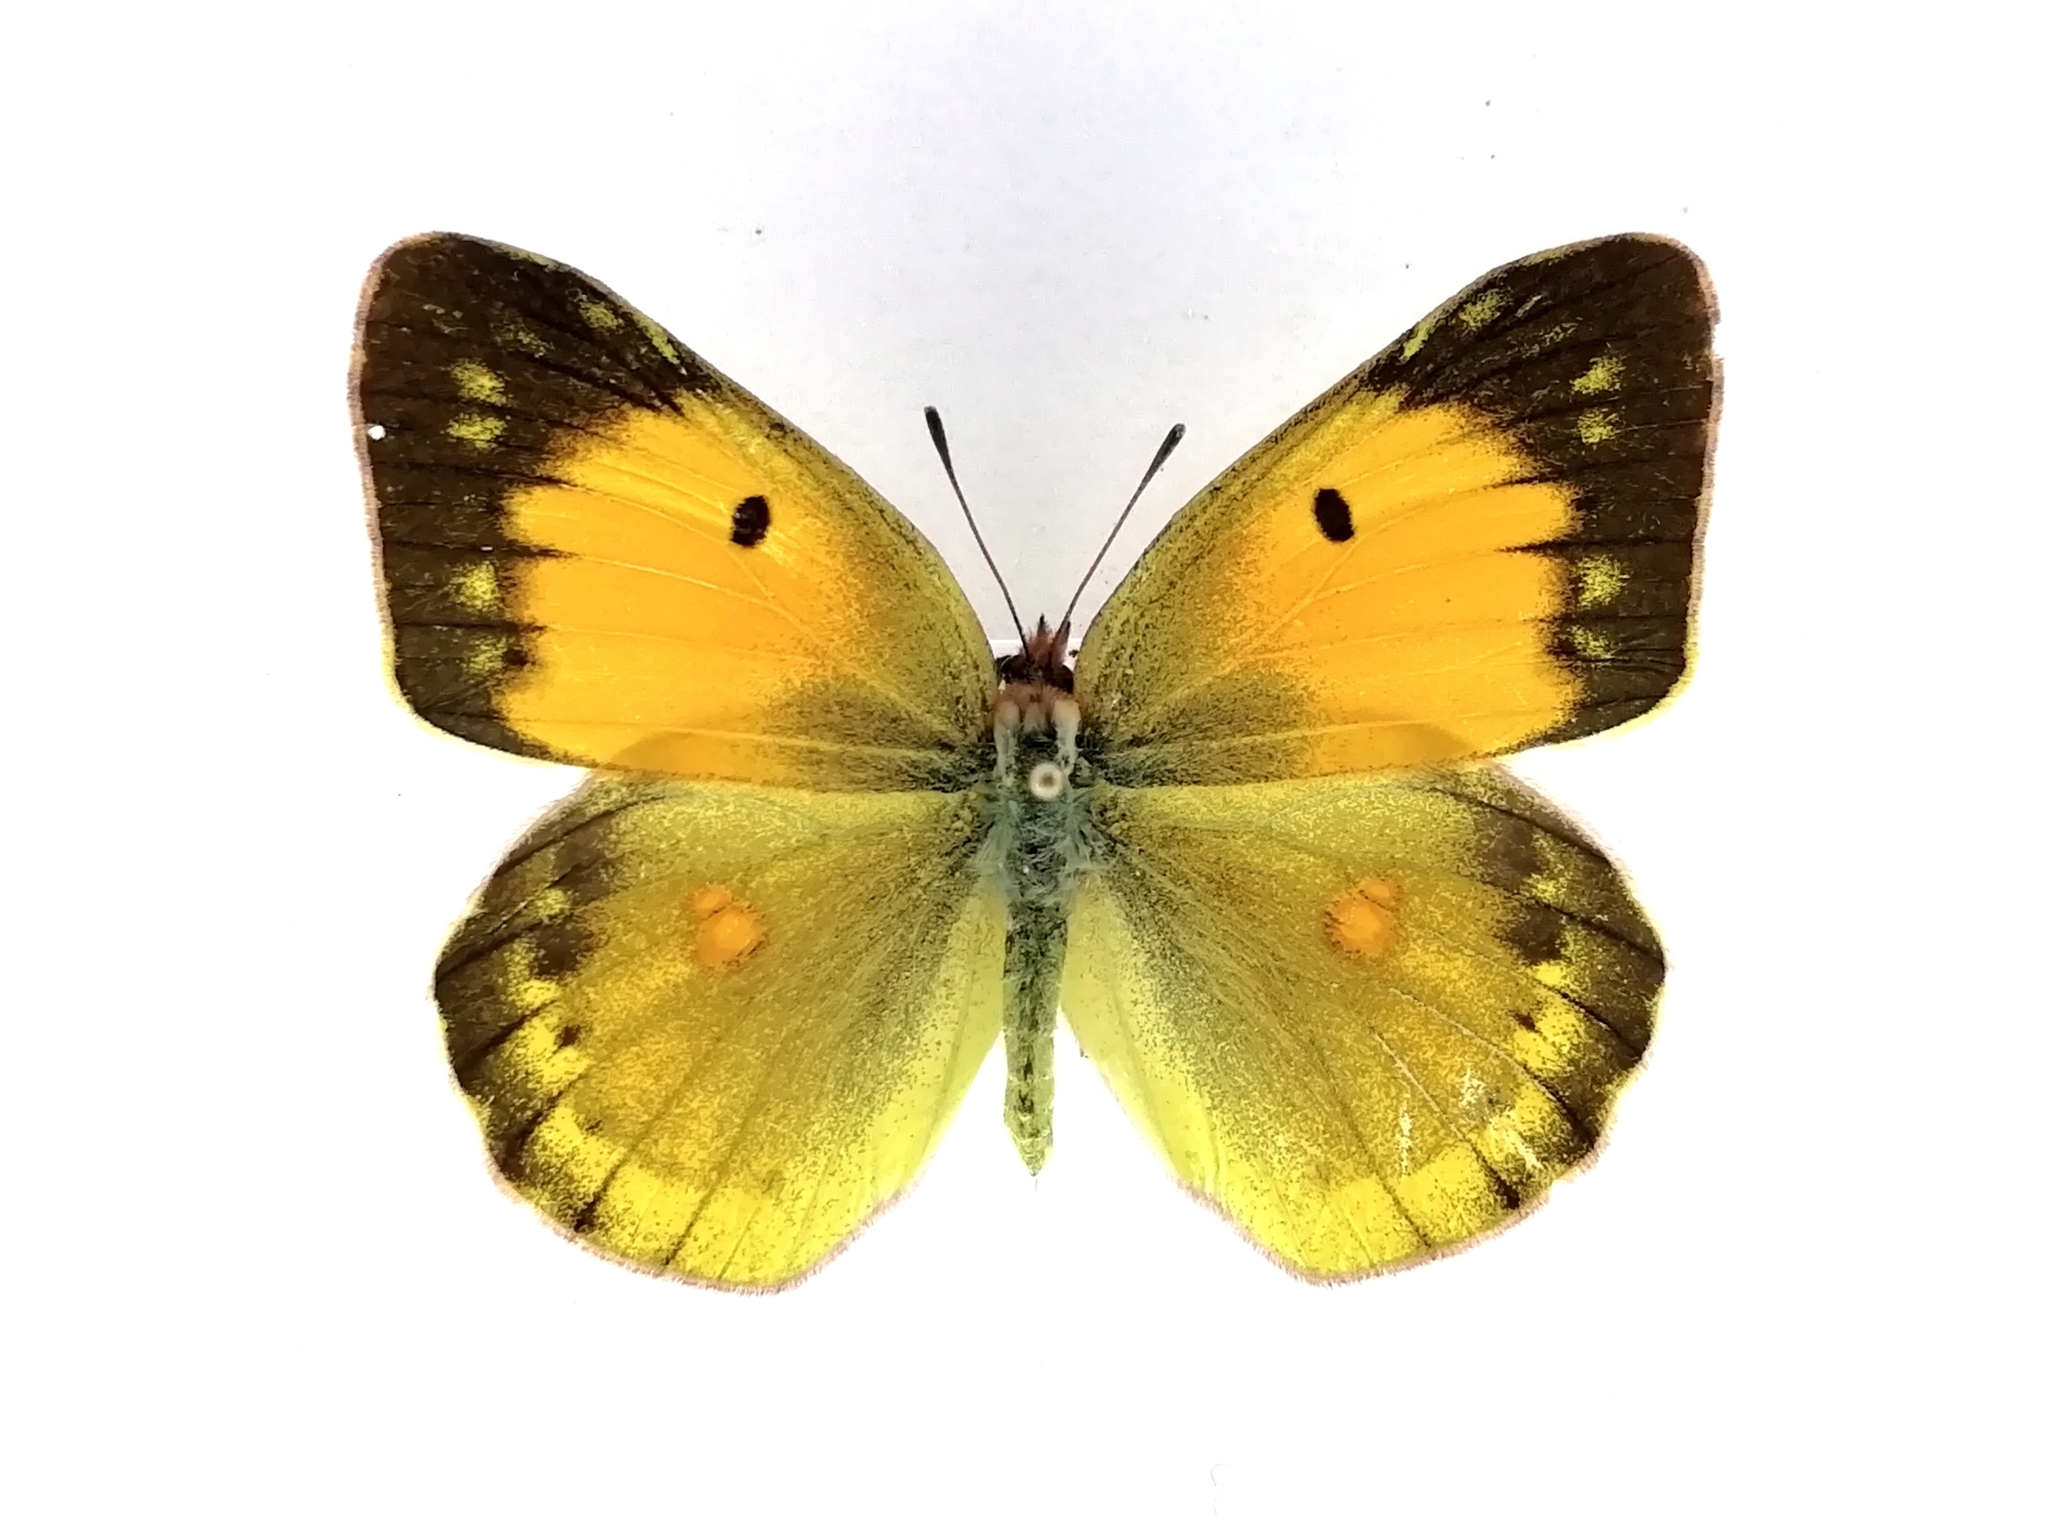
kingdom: Animalia
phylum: Arthropoda
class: Insecta
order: Lepidoptera
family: Pieridae
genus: Colias
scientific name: Colias myrmidone
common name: Danube clouded yellow
